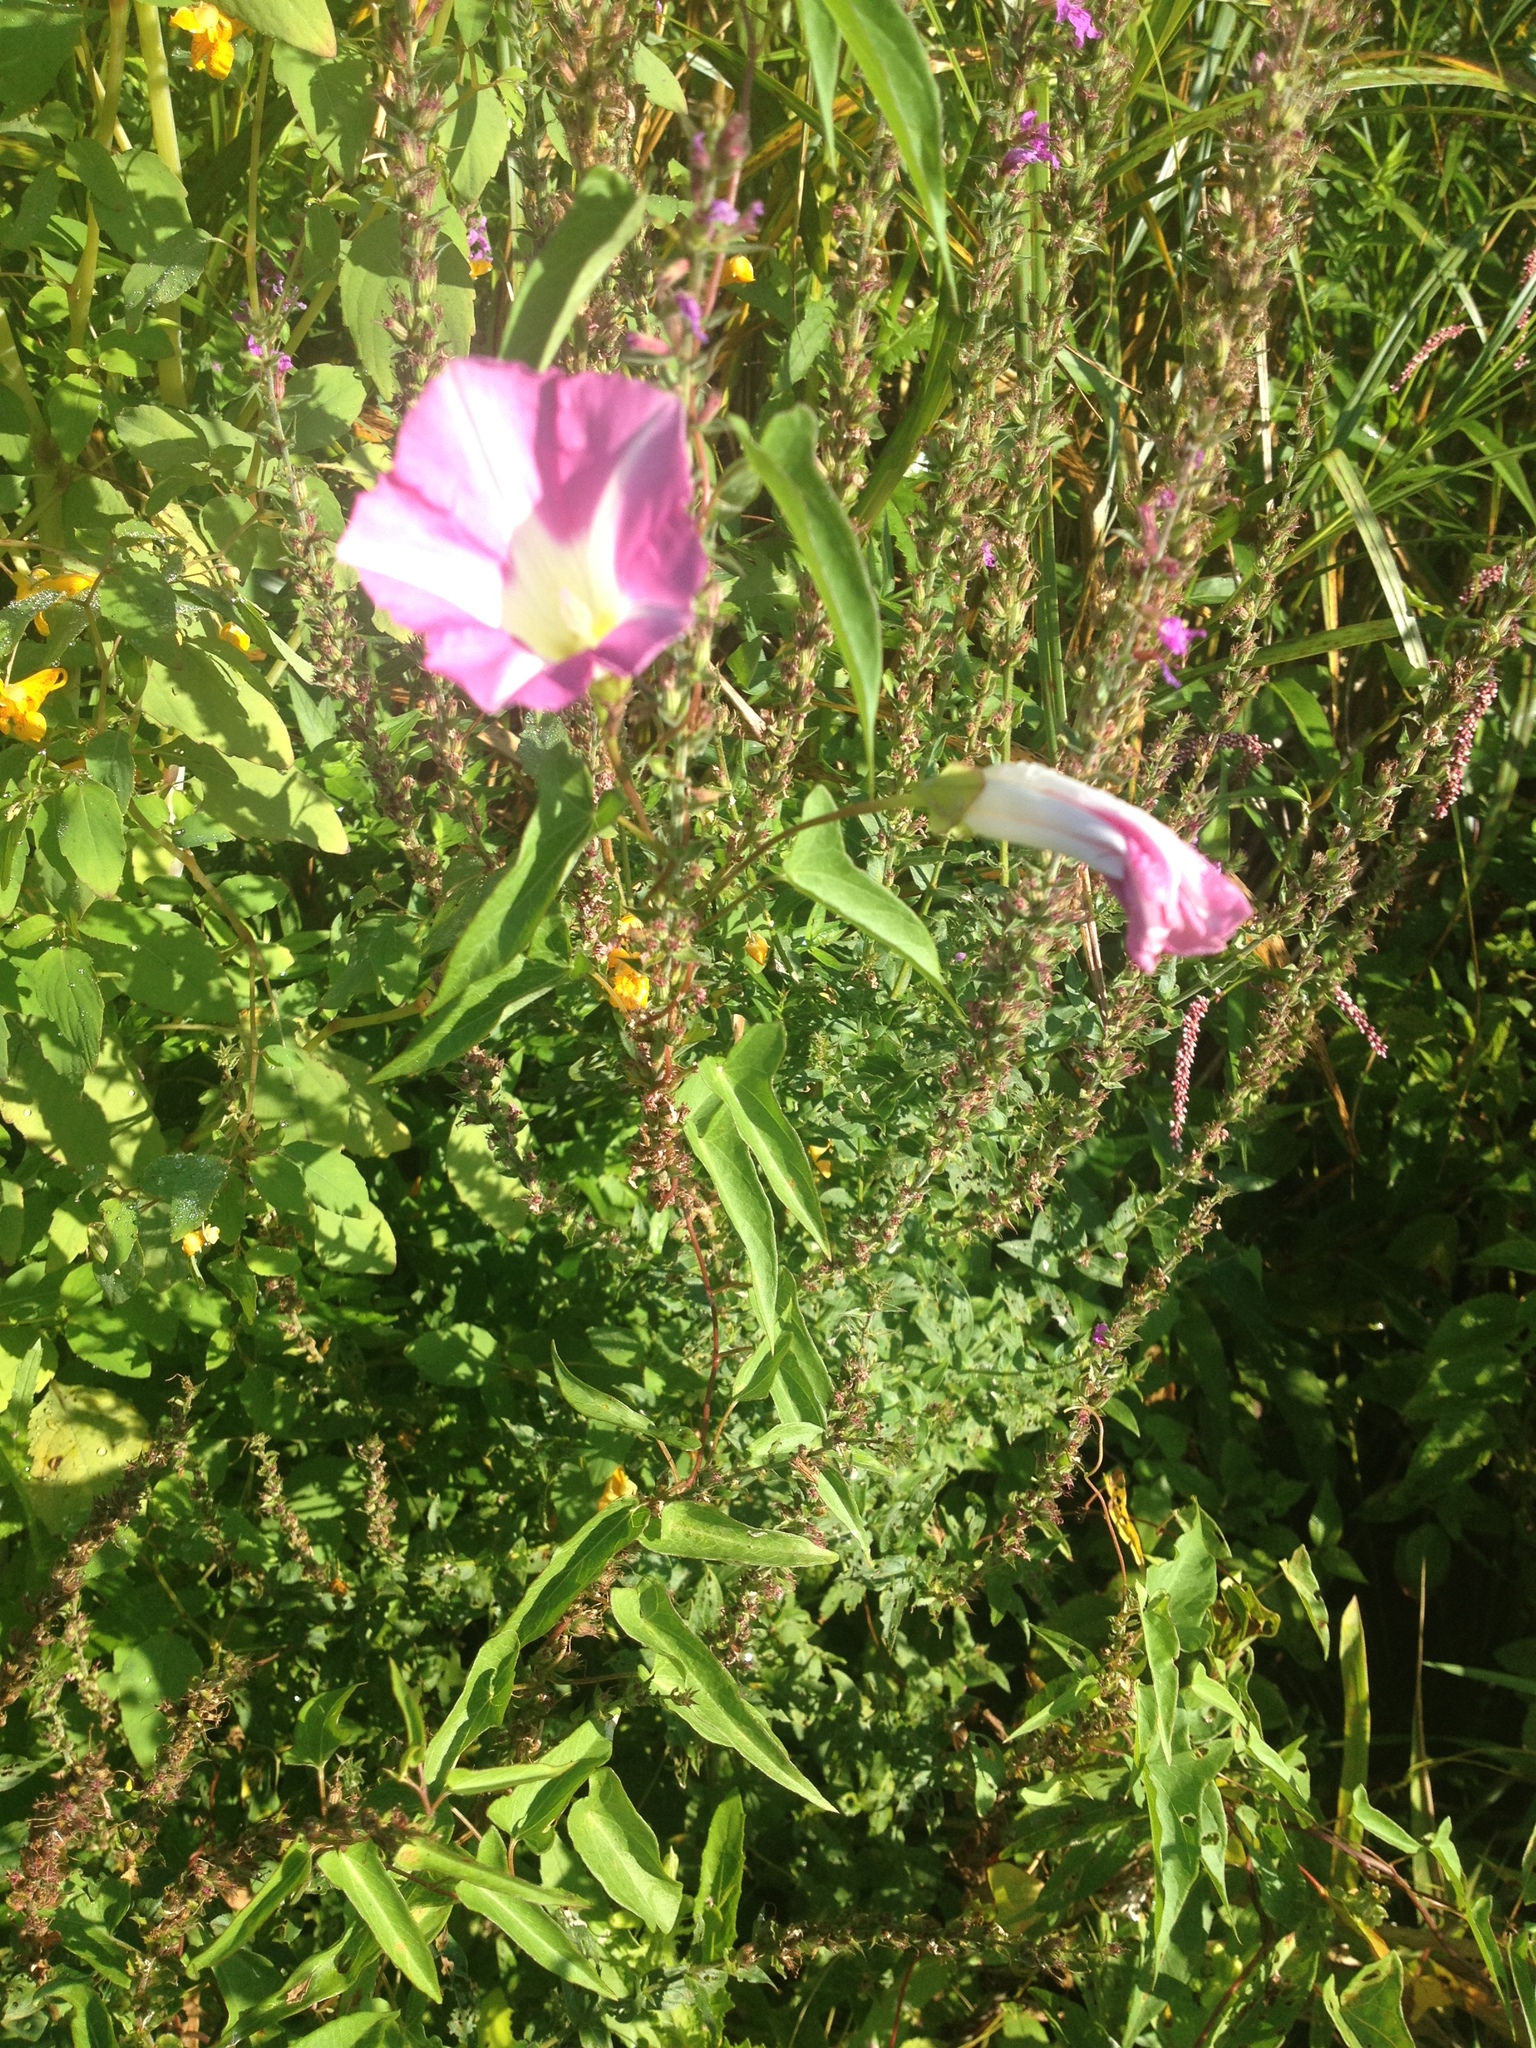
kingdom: Plantae
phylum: Tracheophyta
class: Magnoliopsida
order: Solanales
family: Convolvulaceae
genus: Calystegia
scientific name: Calystegia sepium
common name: Hedge bindweed
